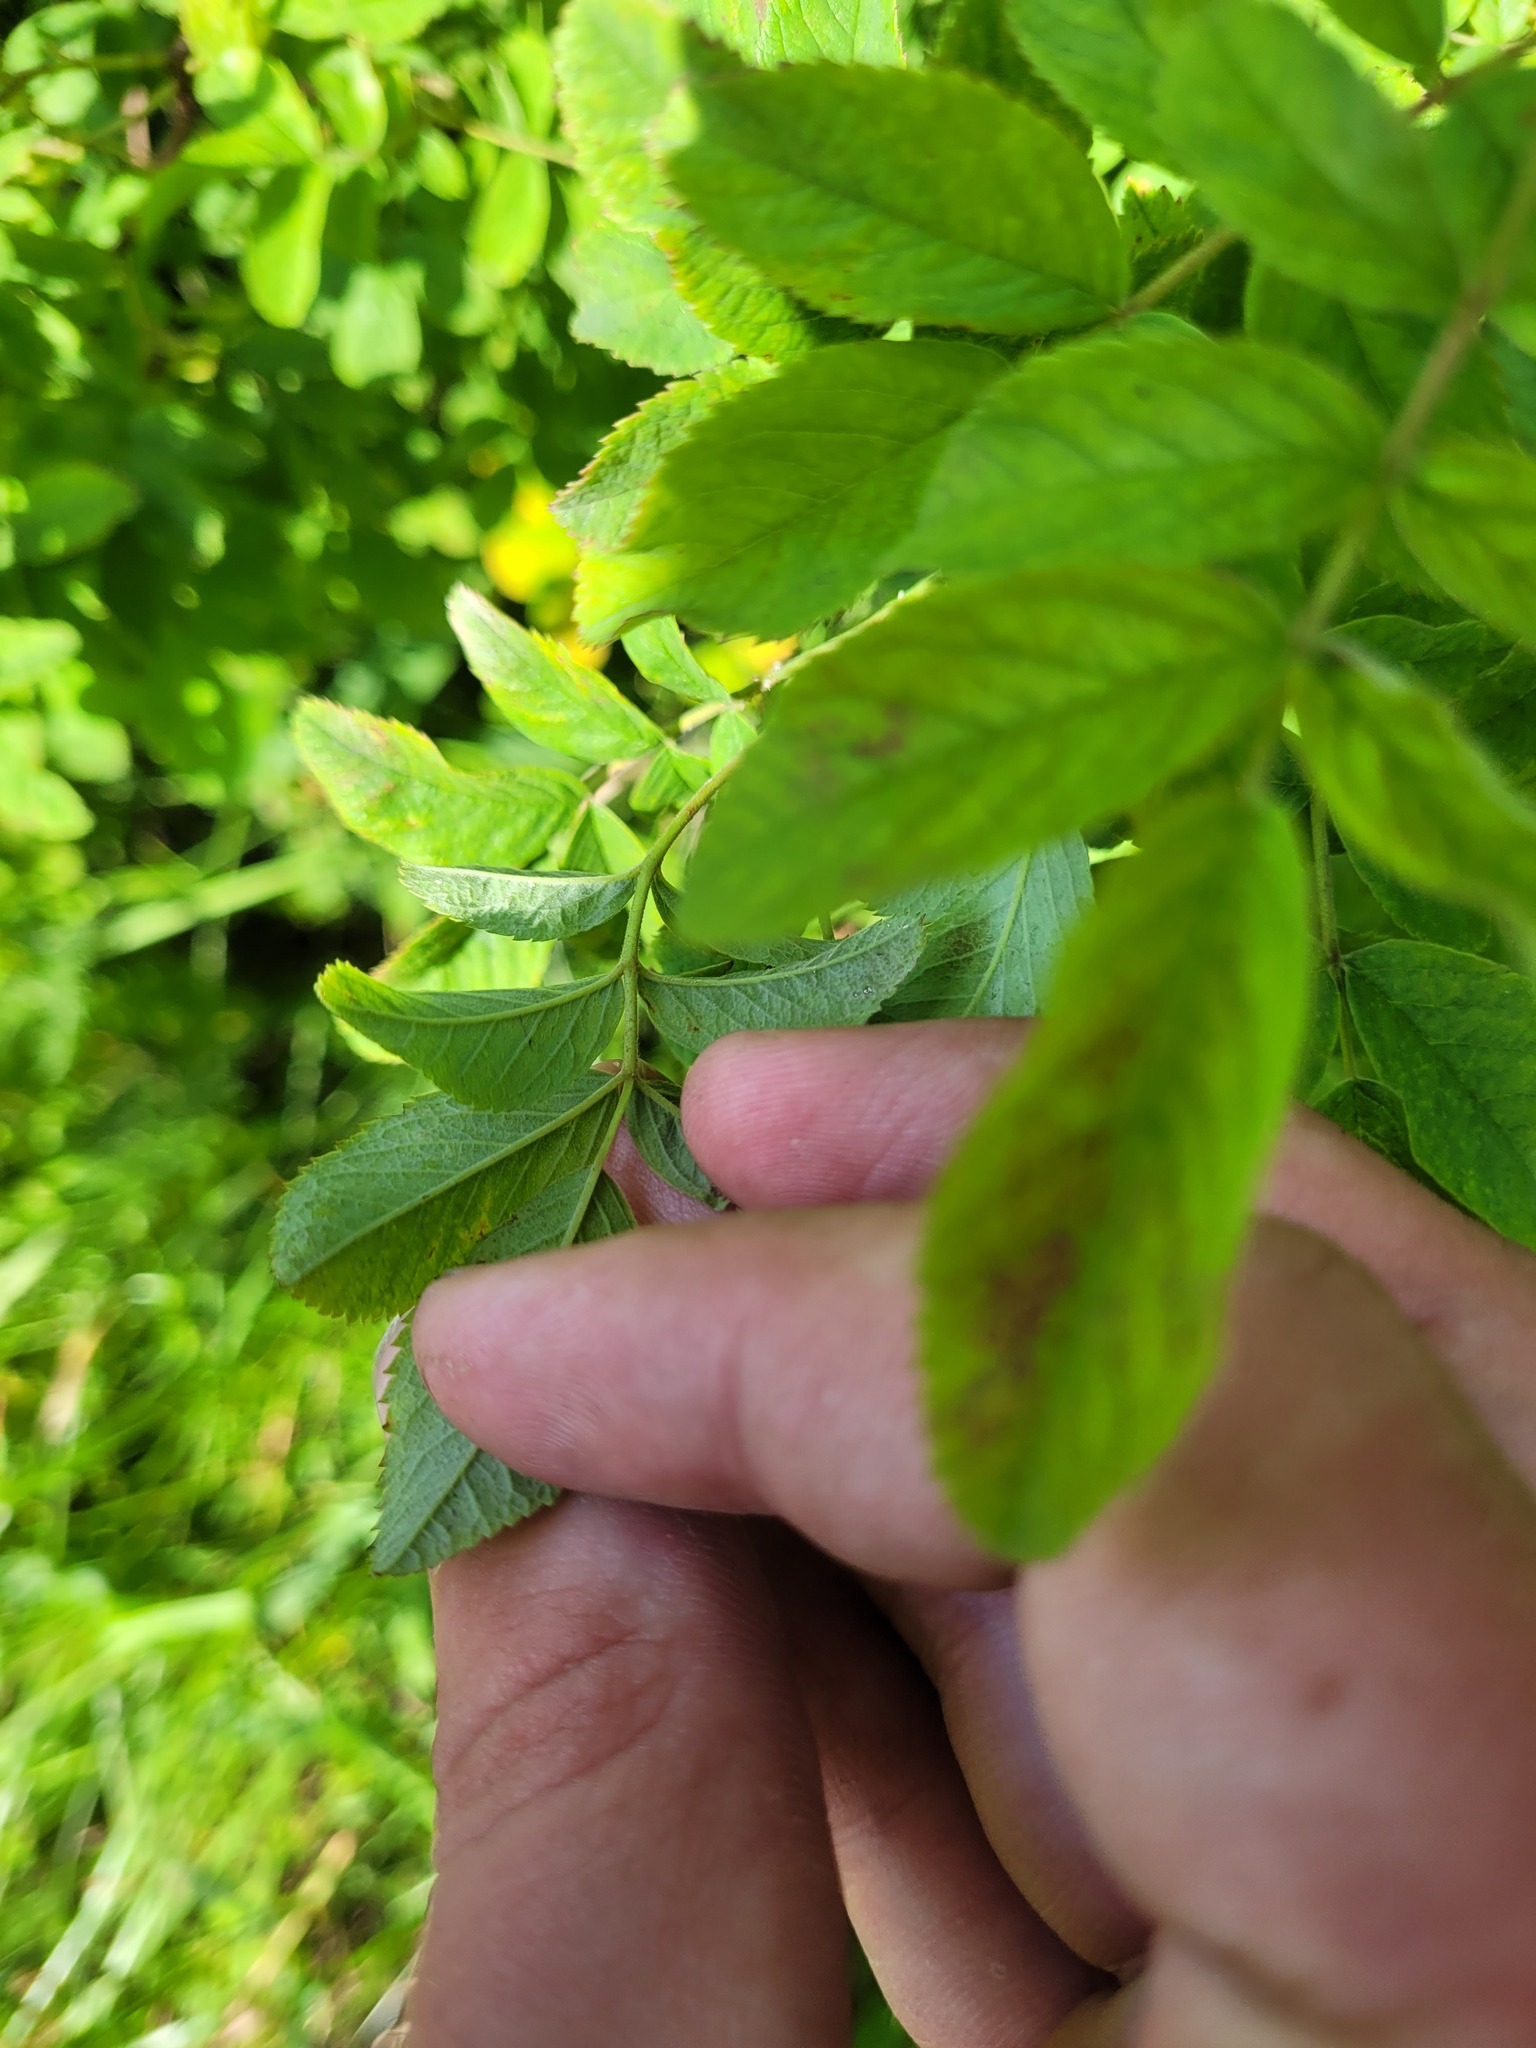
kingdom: Plantae
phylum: Tracheophyta
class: Magnoliopsida
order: Rosales
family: Rosaceae
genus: Rosa
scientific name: Rosa majalis
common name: Cinnamon rose
